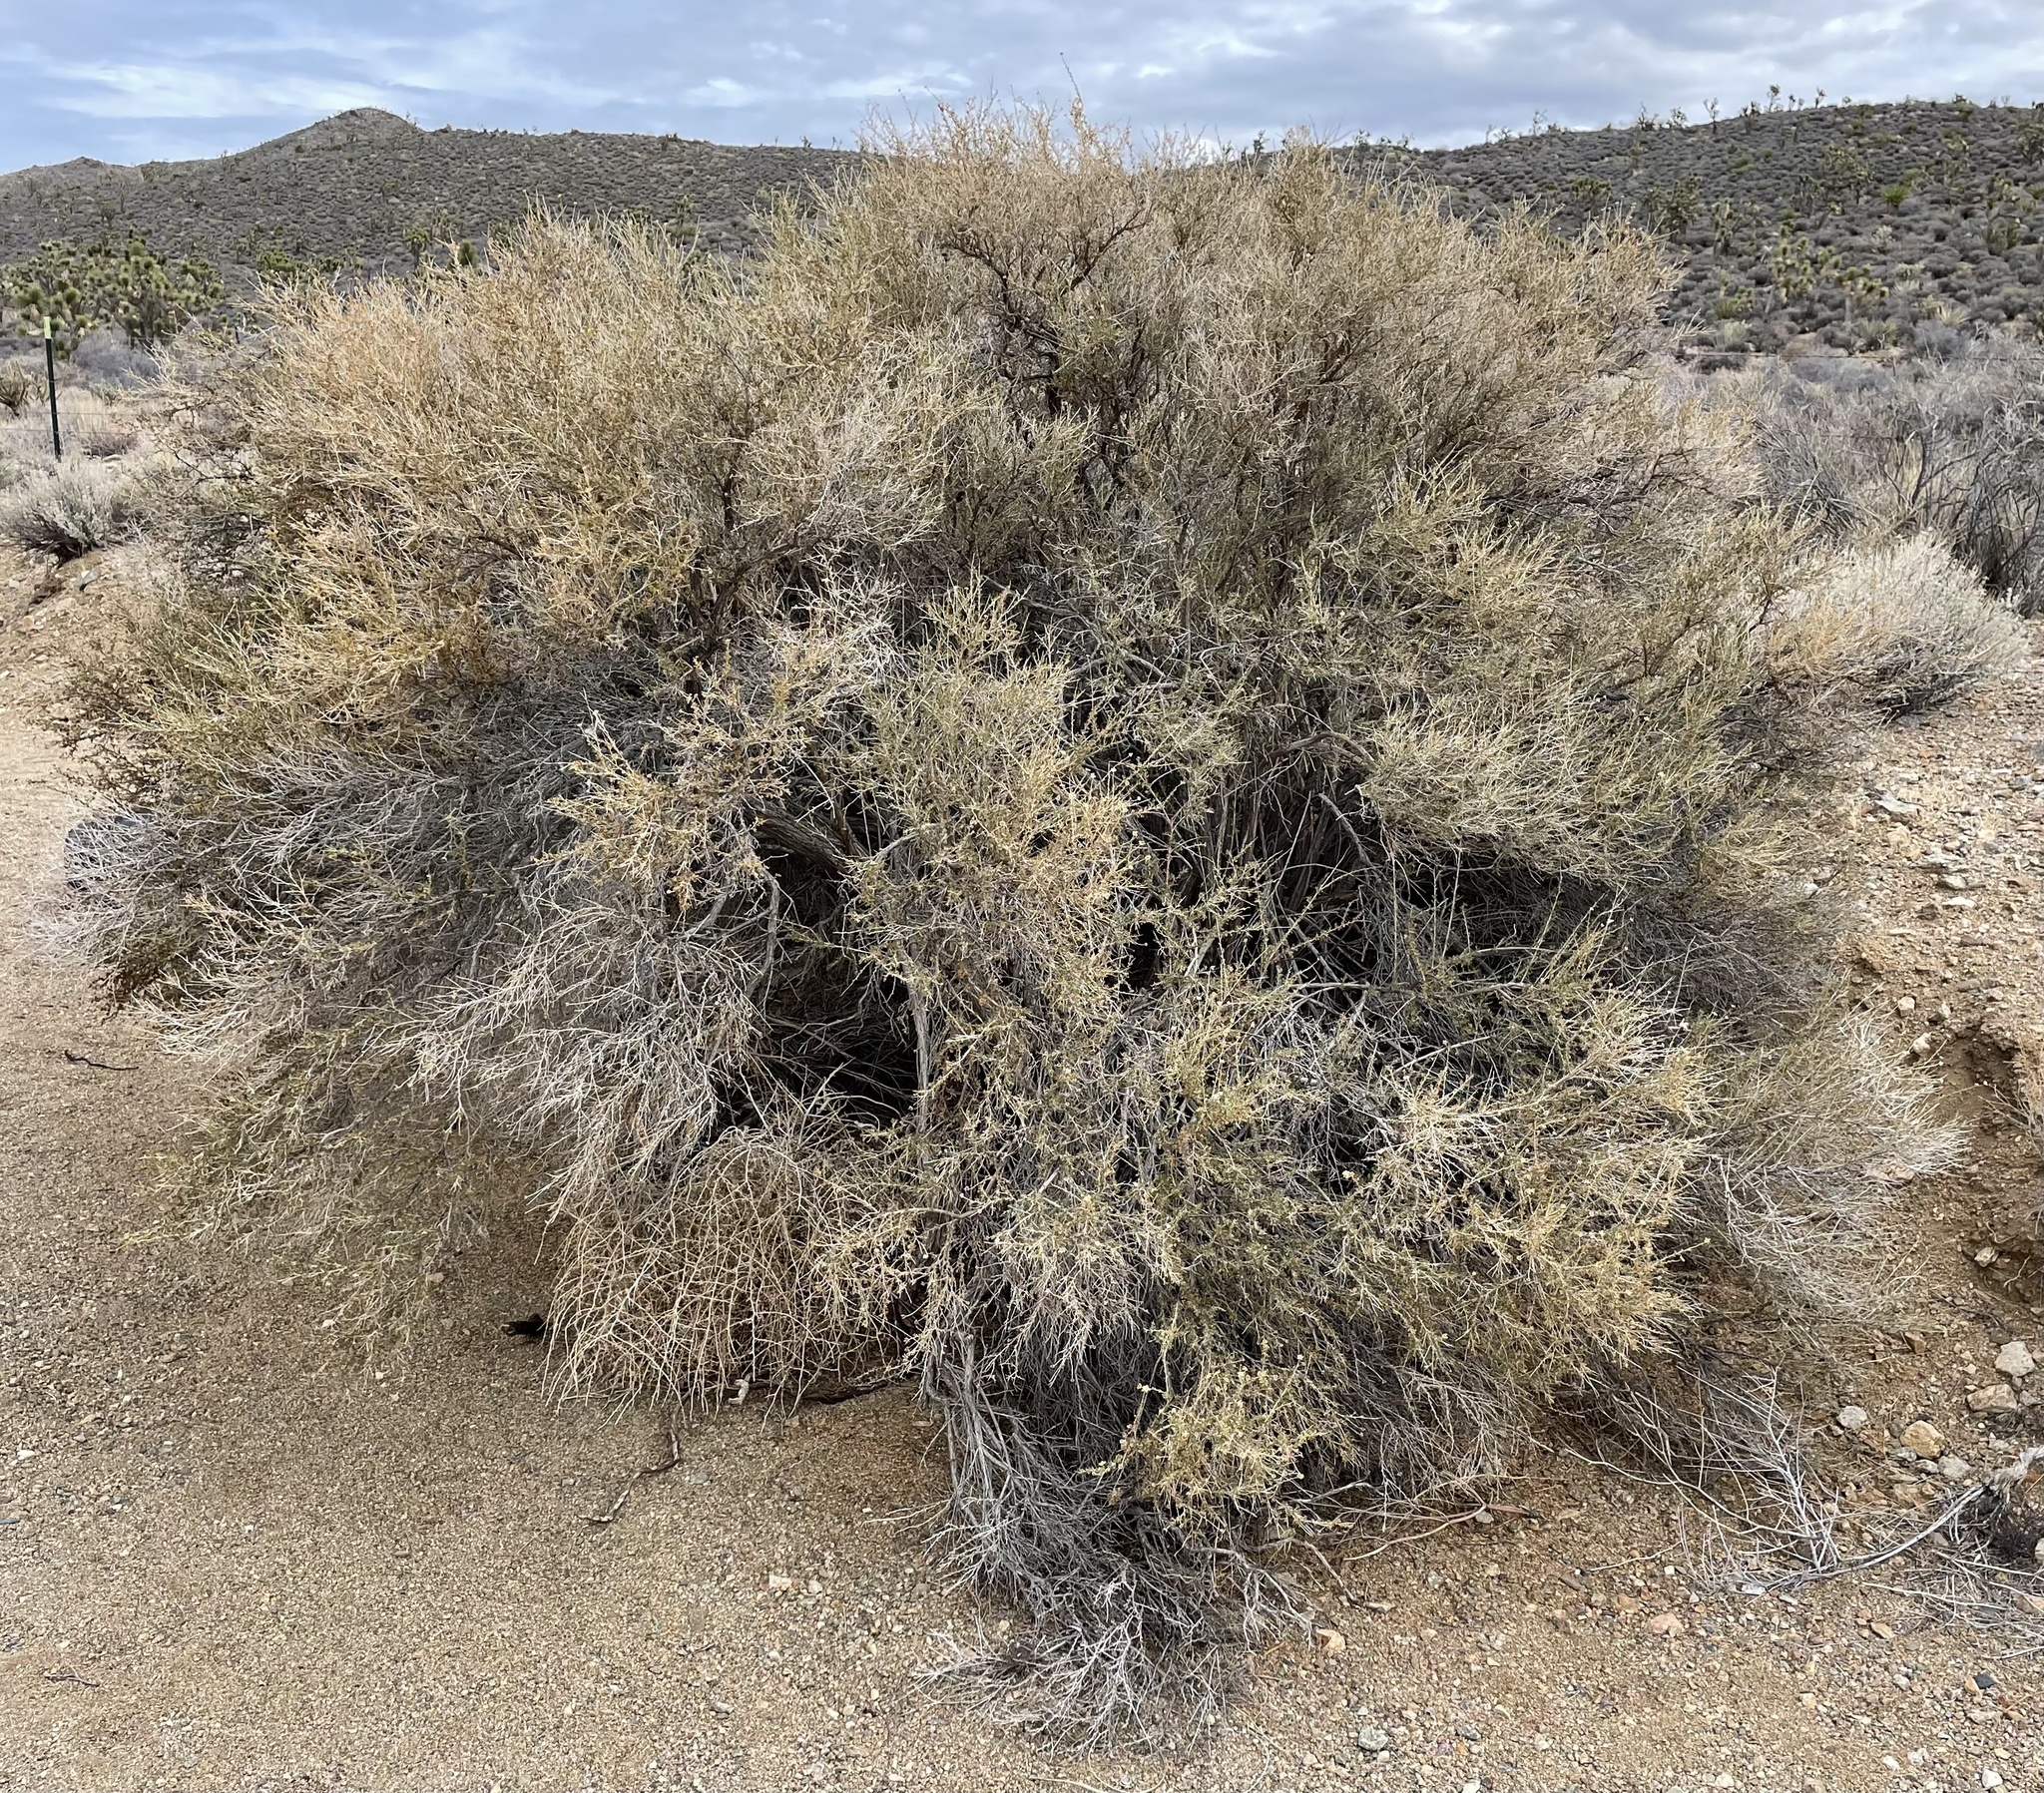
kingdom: Plantae
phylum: Tracheophyta
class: Magnoliopsida
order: Rosales
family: Rosaceae
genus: Fallugia
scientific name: Fallugia paradoxa
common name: Apache-plume
